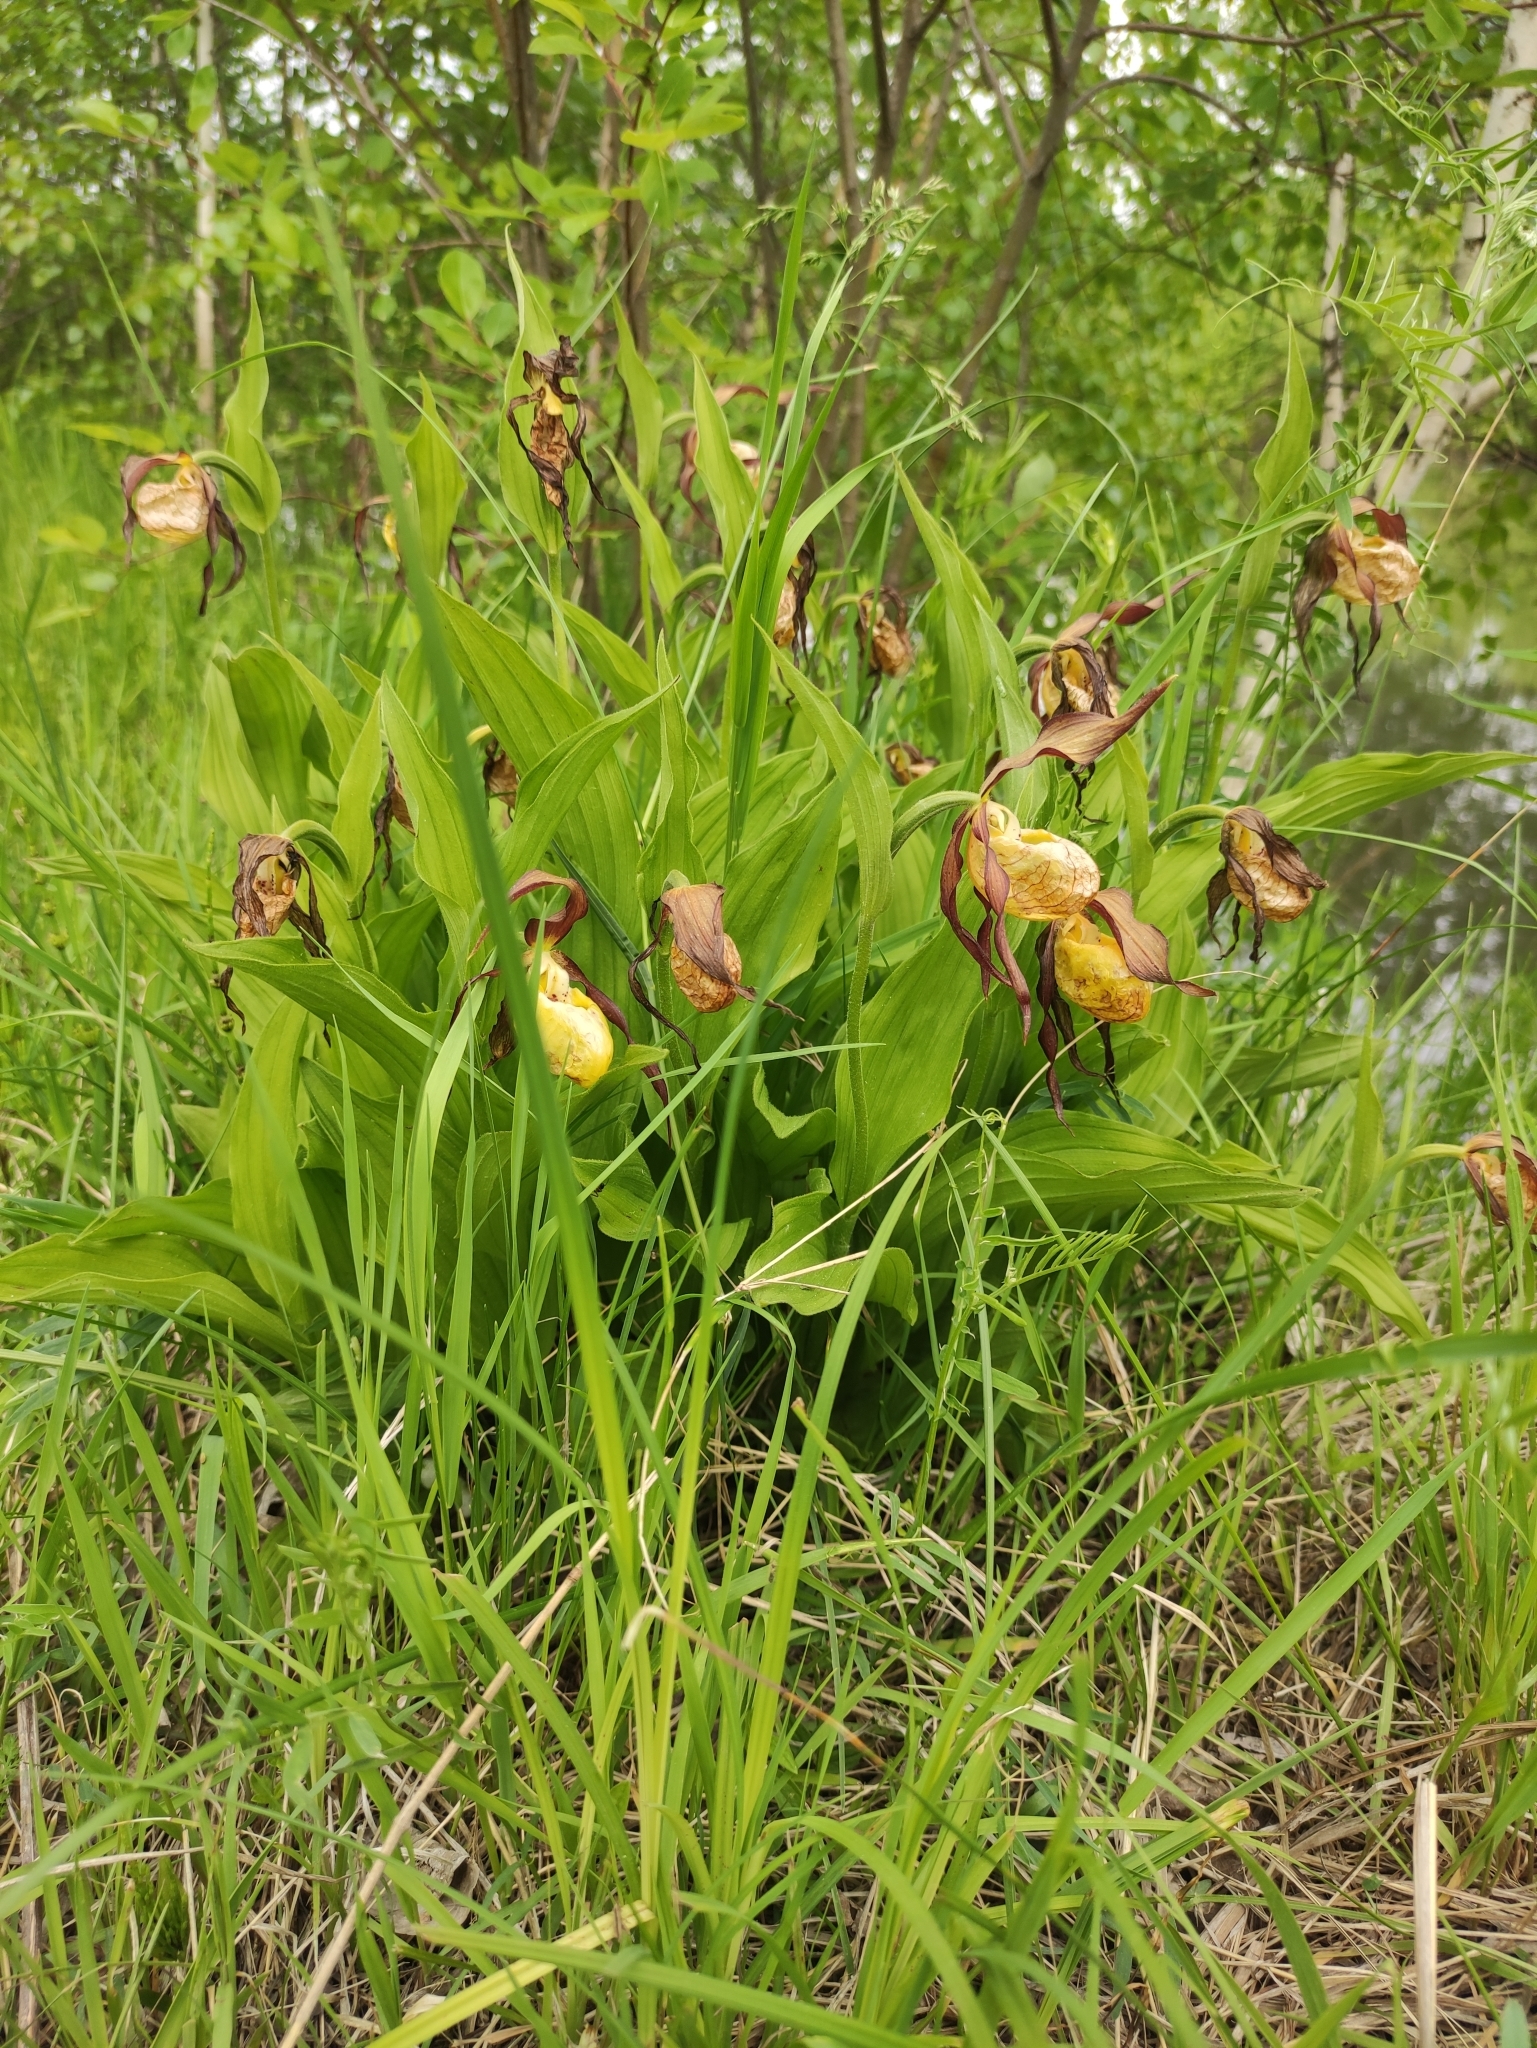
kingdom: Plantae
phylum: Tracheophyta
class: Liliopsida
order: Asparagales
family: Orchidaceae
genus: Cypripedium
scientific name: Cypripedium calceolus
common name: Lady's-slipper
